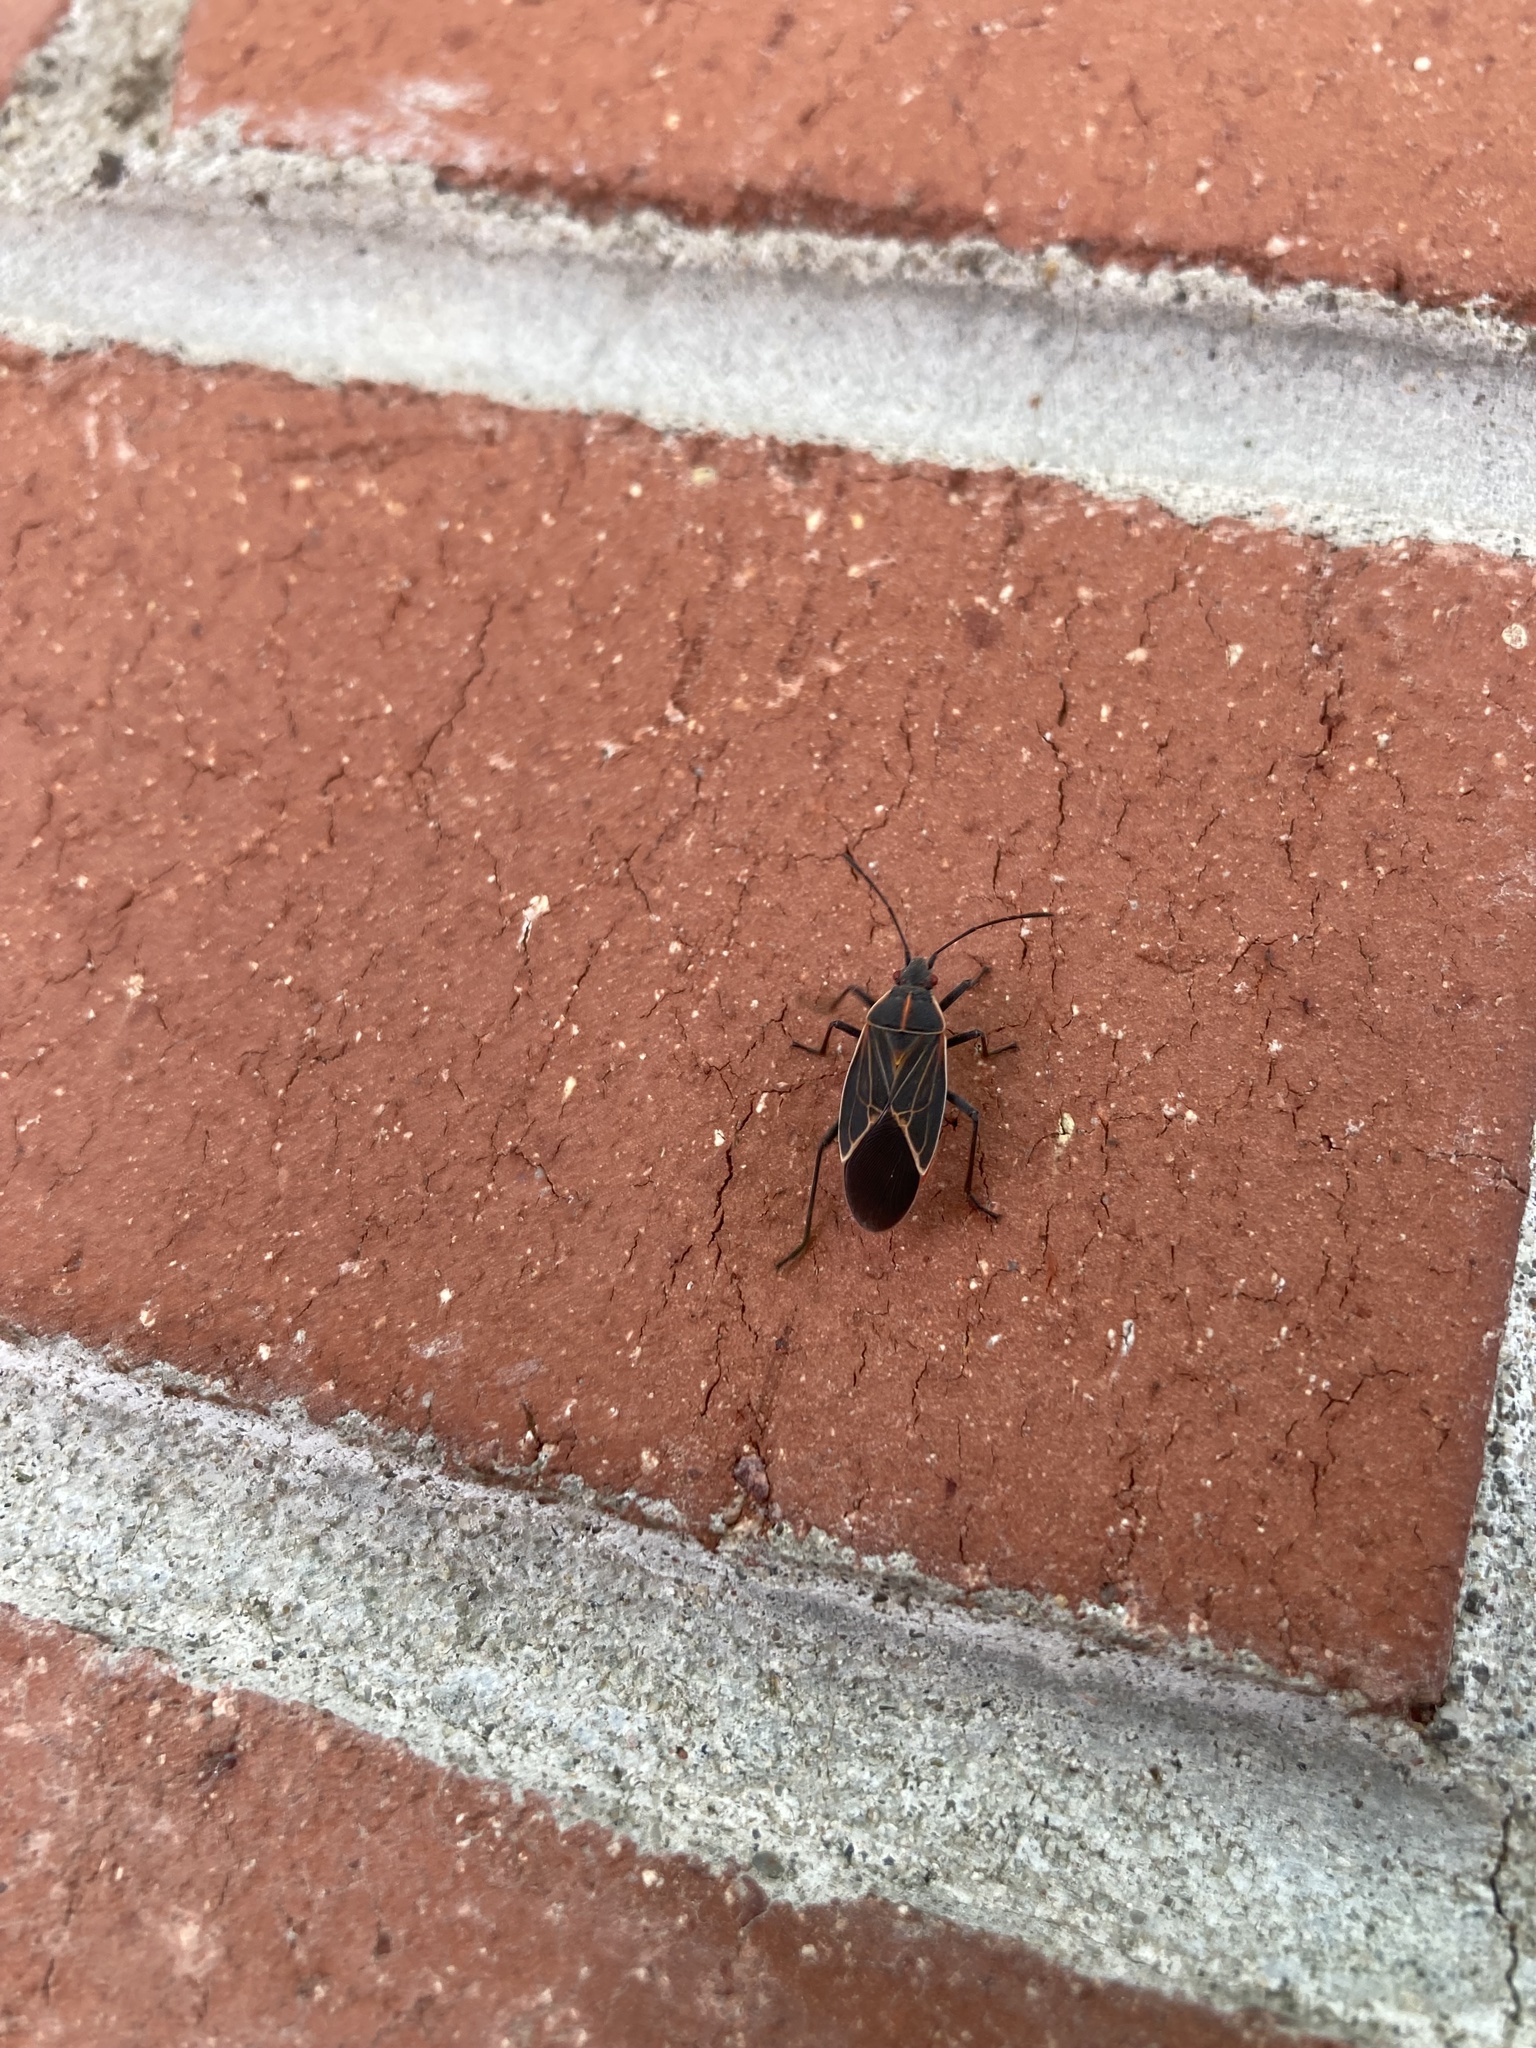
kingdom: Animalia
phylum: Arthropoda
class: Insecta
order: Hemiptera
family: Rhopalidae
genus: Boisea
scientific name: Boisea rubrolineata
